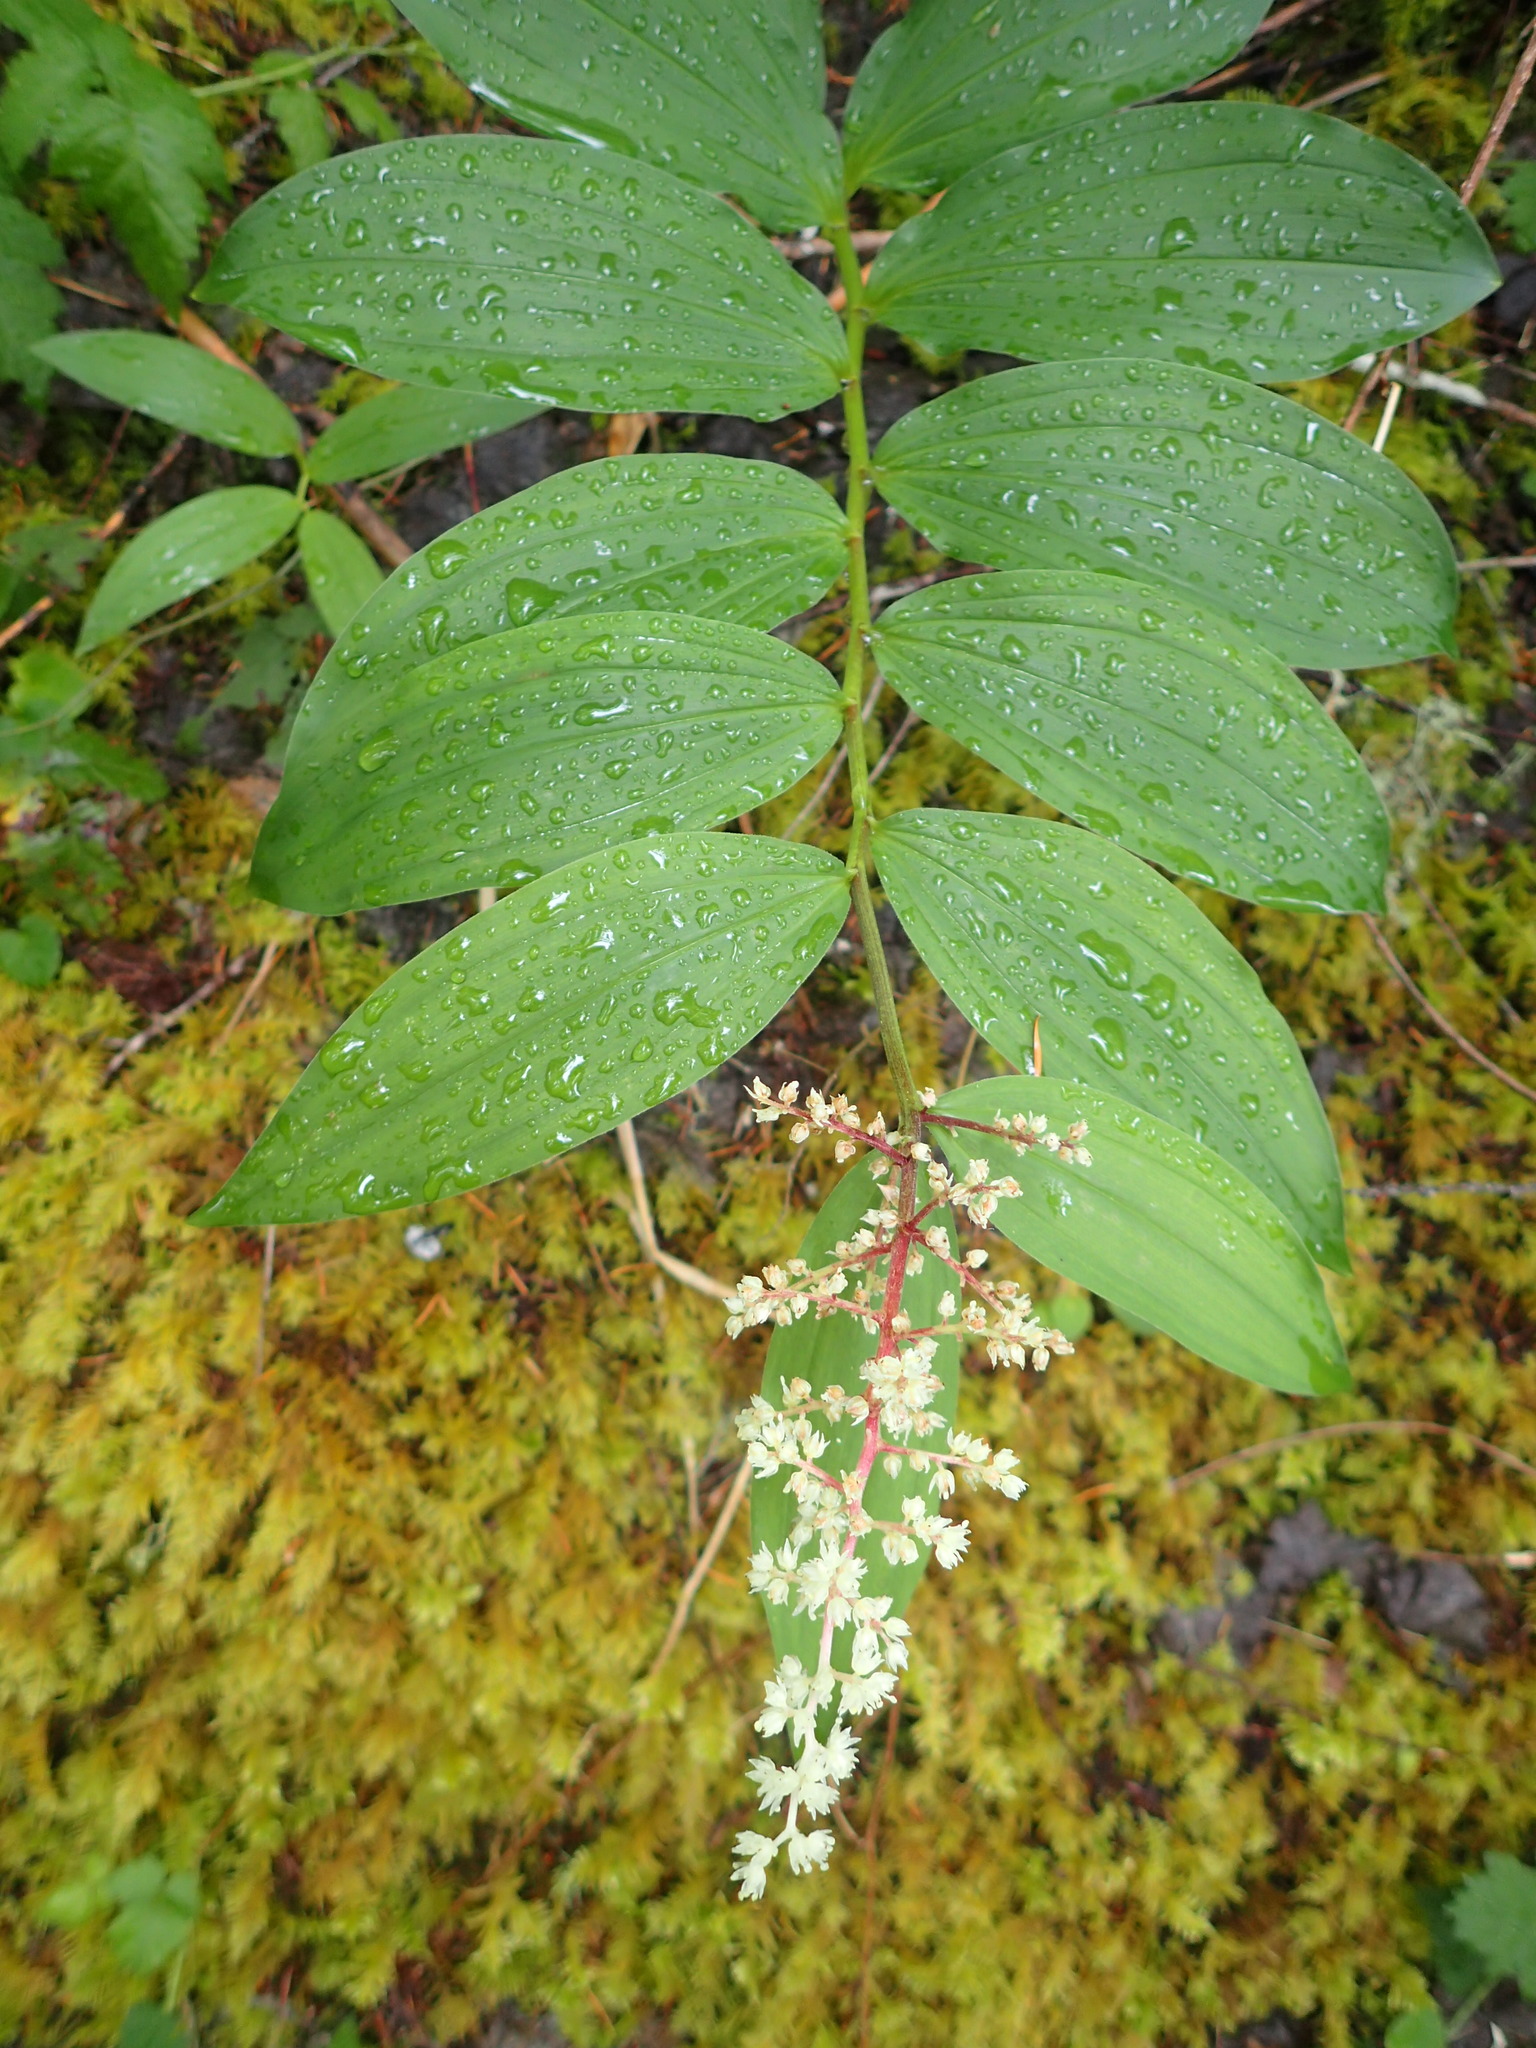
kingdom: Plantae
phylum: Tracheophyta
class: Liliopsida
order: Asparagales
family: Asparagaceae
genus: Maianthemum
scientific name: Maianthemum racemosum
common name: False spikenard
